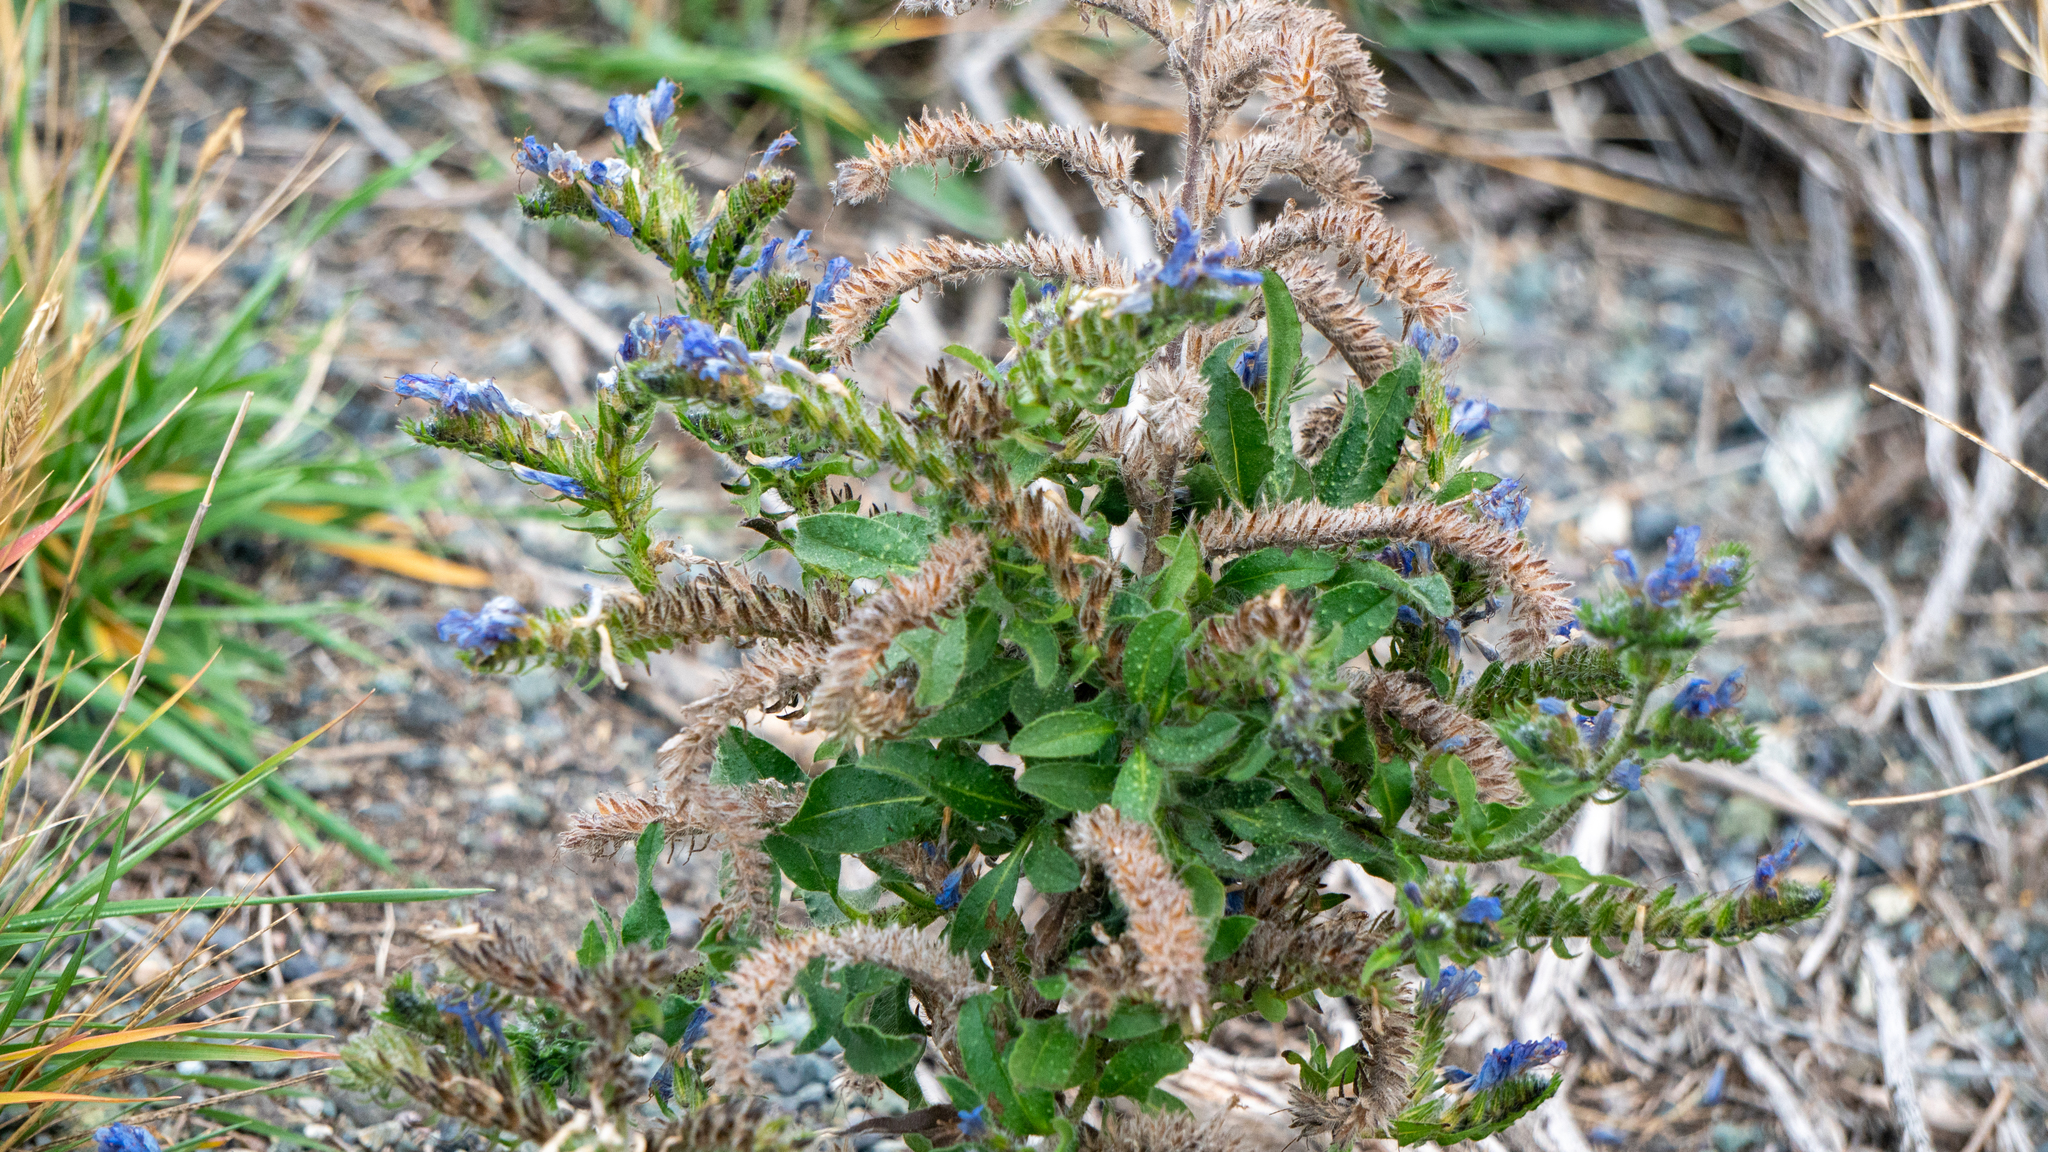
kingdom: Plantae
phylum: Tracheophyta
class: Magnoliopsida
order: Boraginales
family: Boraginaceae
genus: Echium
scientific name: Echium vulgare
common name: Common viper's bugloss
